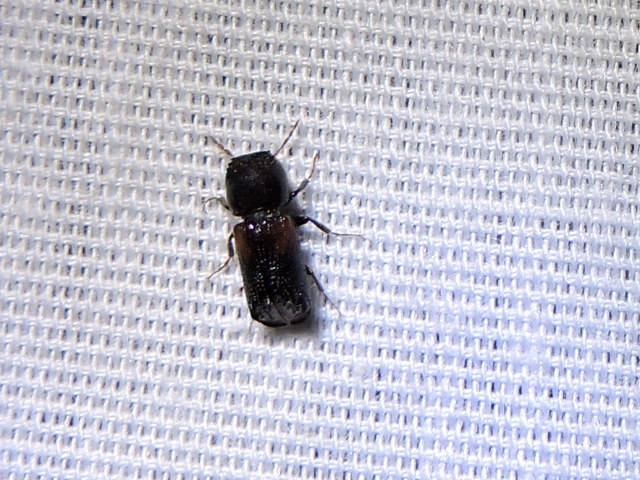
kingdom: Animalia
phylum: Arthropoda
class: Insecta
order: Coleoptera
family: Bostrichidae
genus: Xylobiops
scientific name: Xylobiops basilaris
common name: Red-shouldered bostrichid
